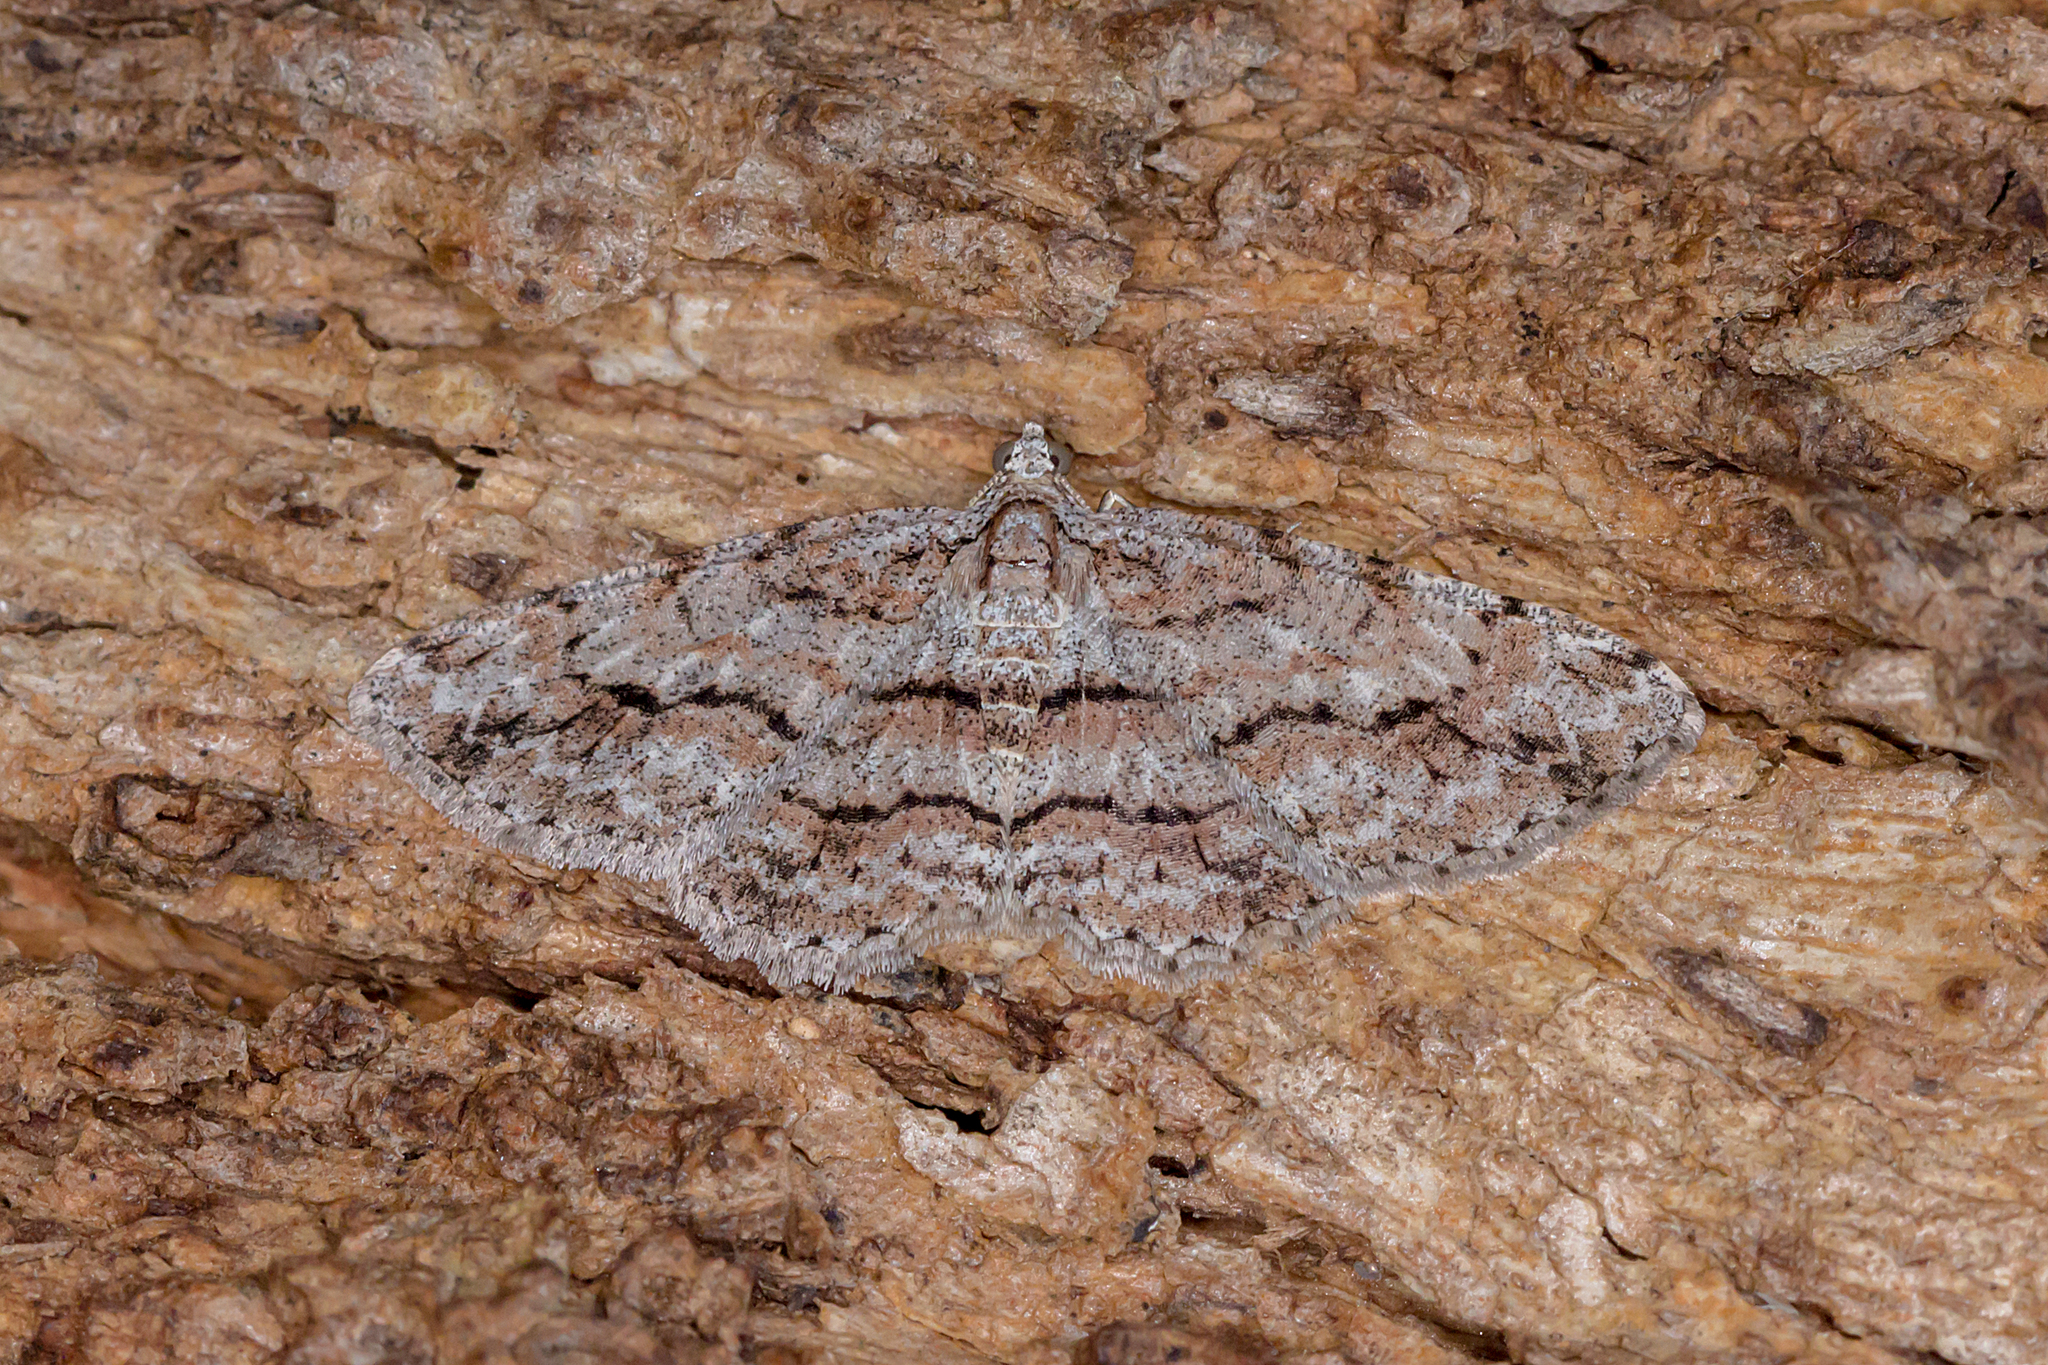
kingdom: Animalia
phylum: Arthropoda
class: Insecta
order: Lepidoptera
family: Geometridae
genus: Didymoctenia
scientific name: Didymoctenia exsuperata
